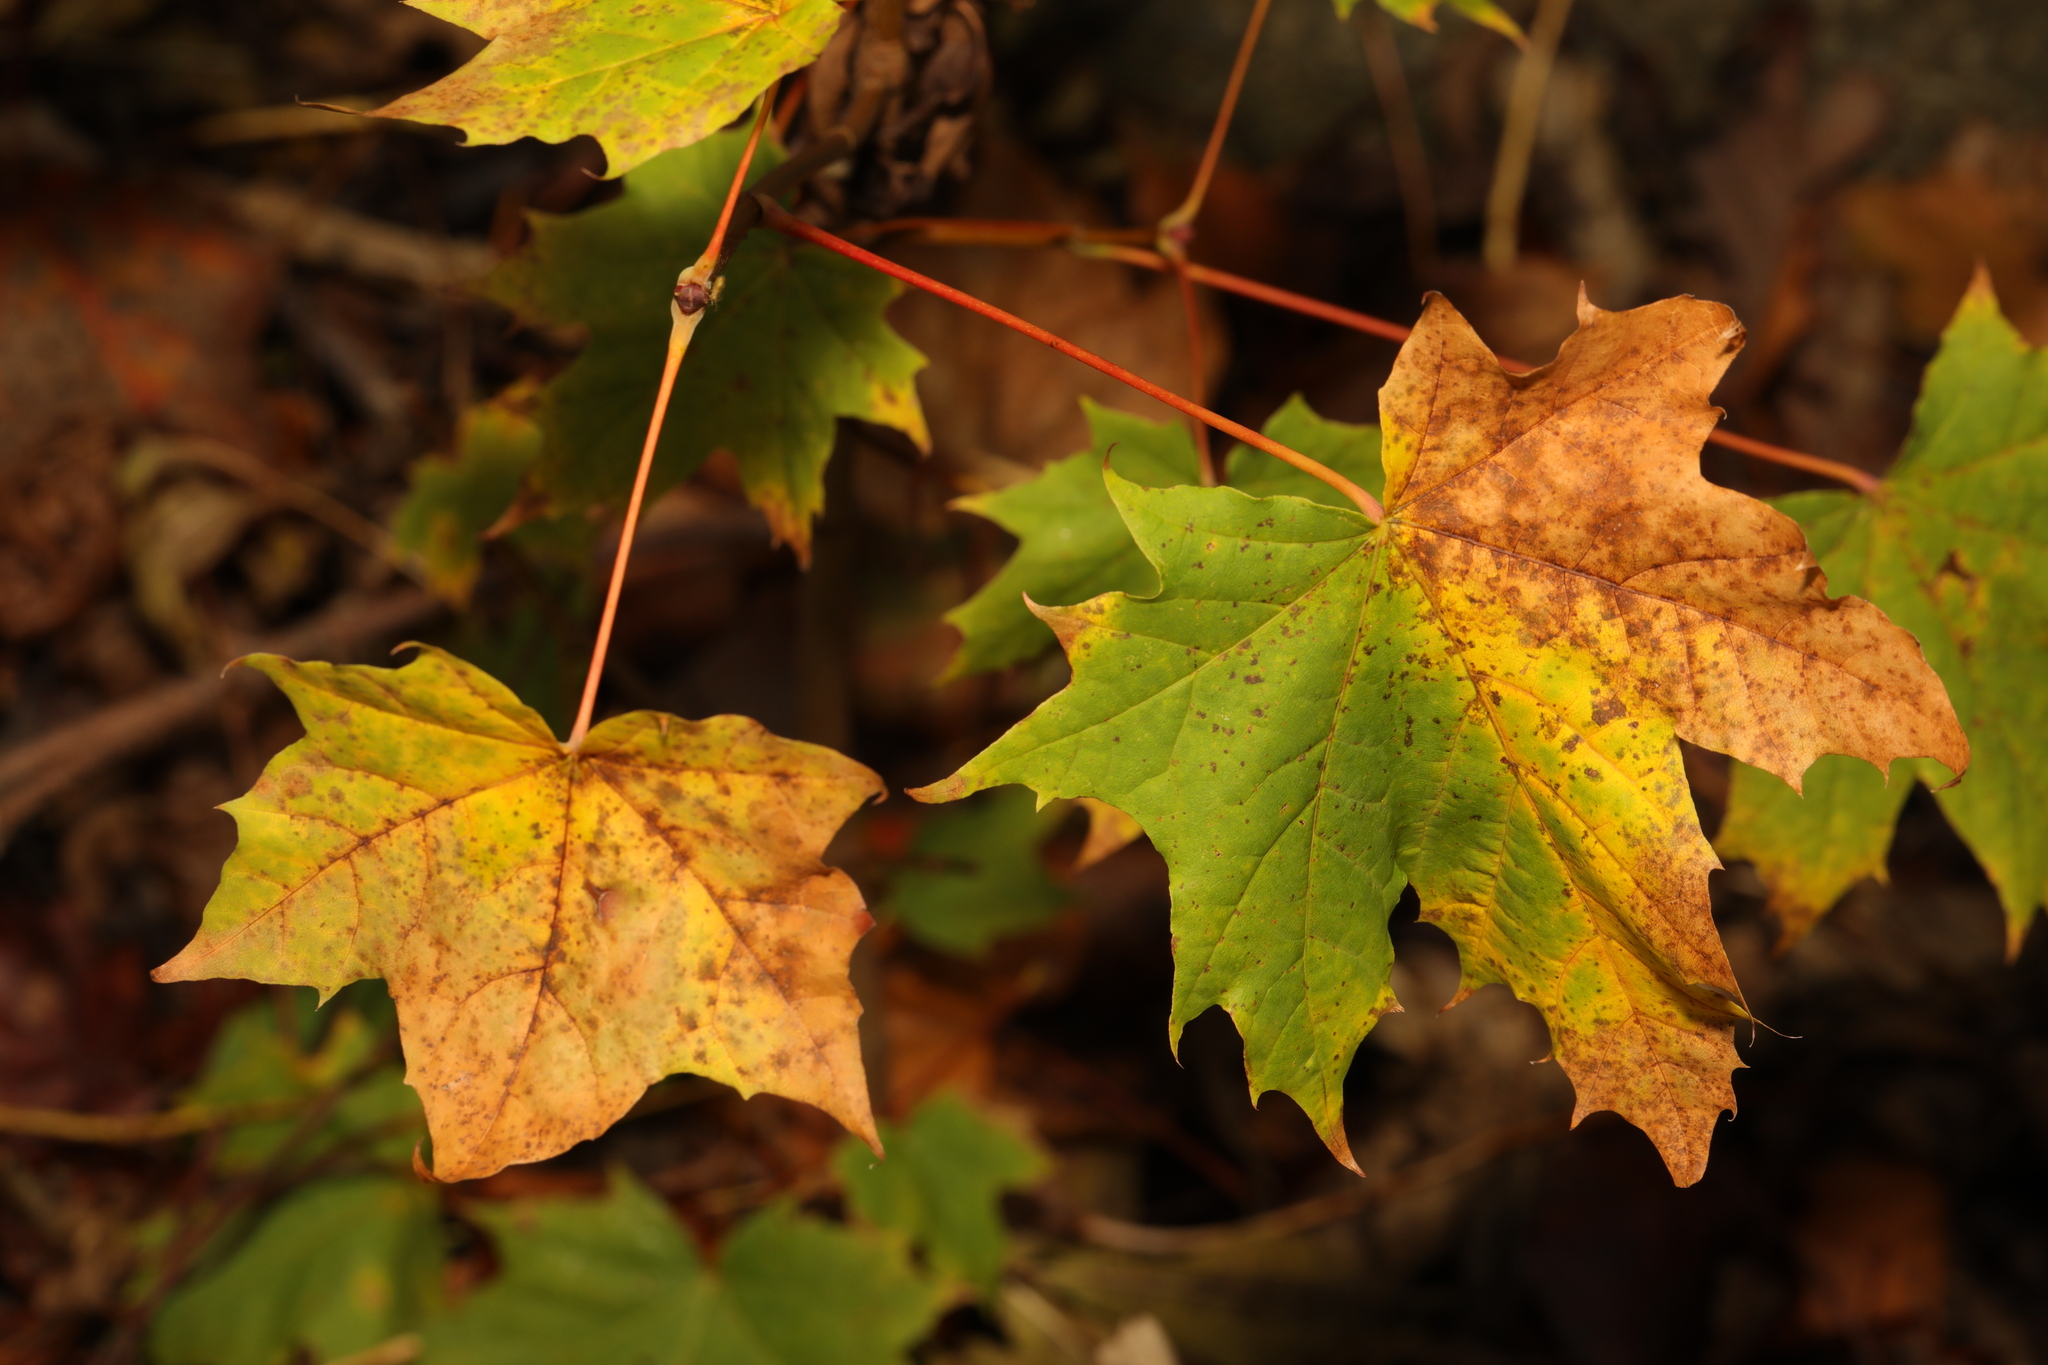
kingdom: Plantae
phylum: Tracheophyta
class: Magnoliopsida
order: Sapindales
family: Sapindaceae
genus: Acer
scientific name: Acer platanoides
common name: Norway maple
